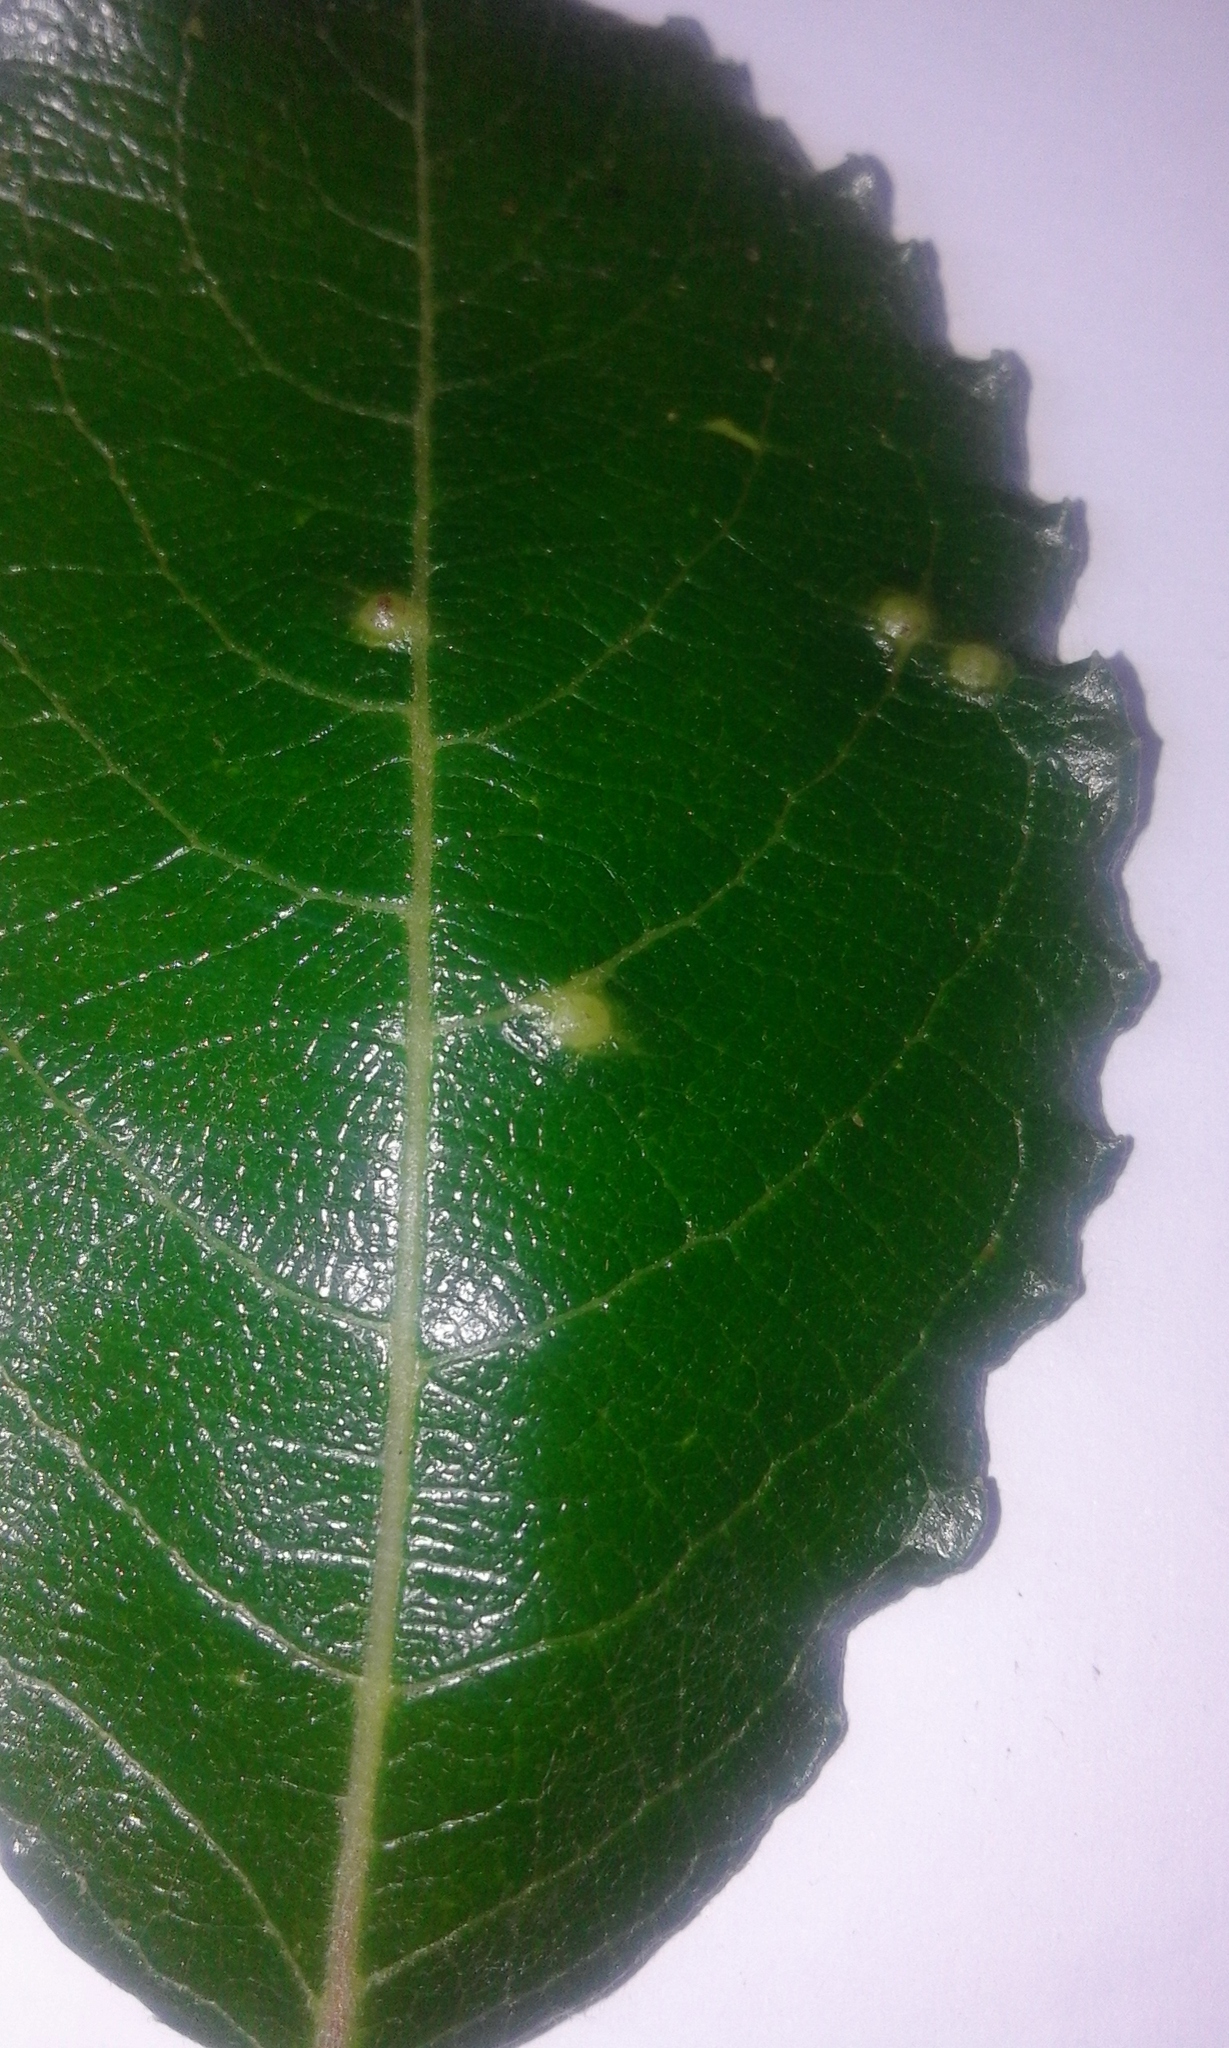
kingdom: Animalia
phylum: Arthropoda
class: Insecta
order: Diptera
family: Cecidomyiidae
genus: Iteomyia
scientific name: Iteomyia capreae
